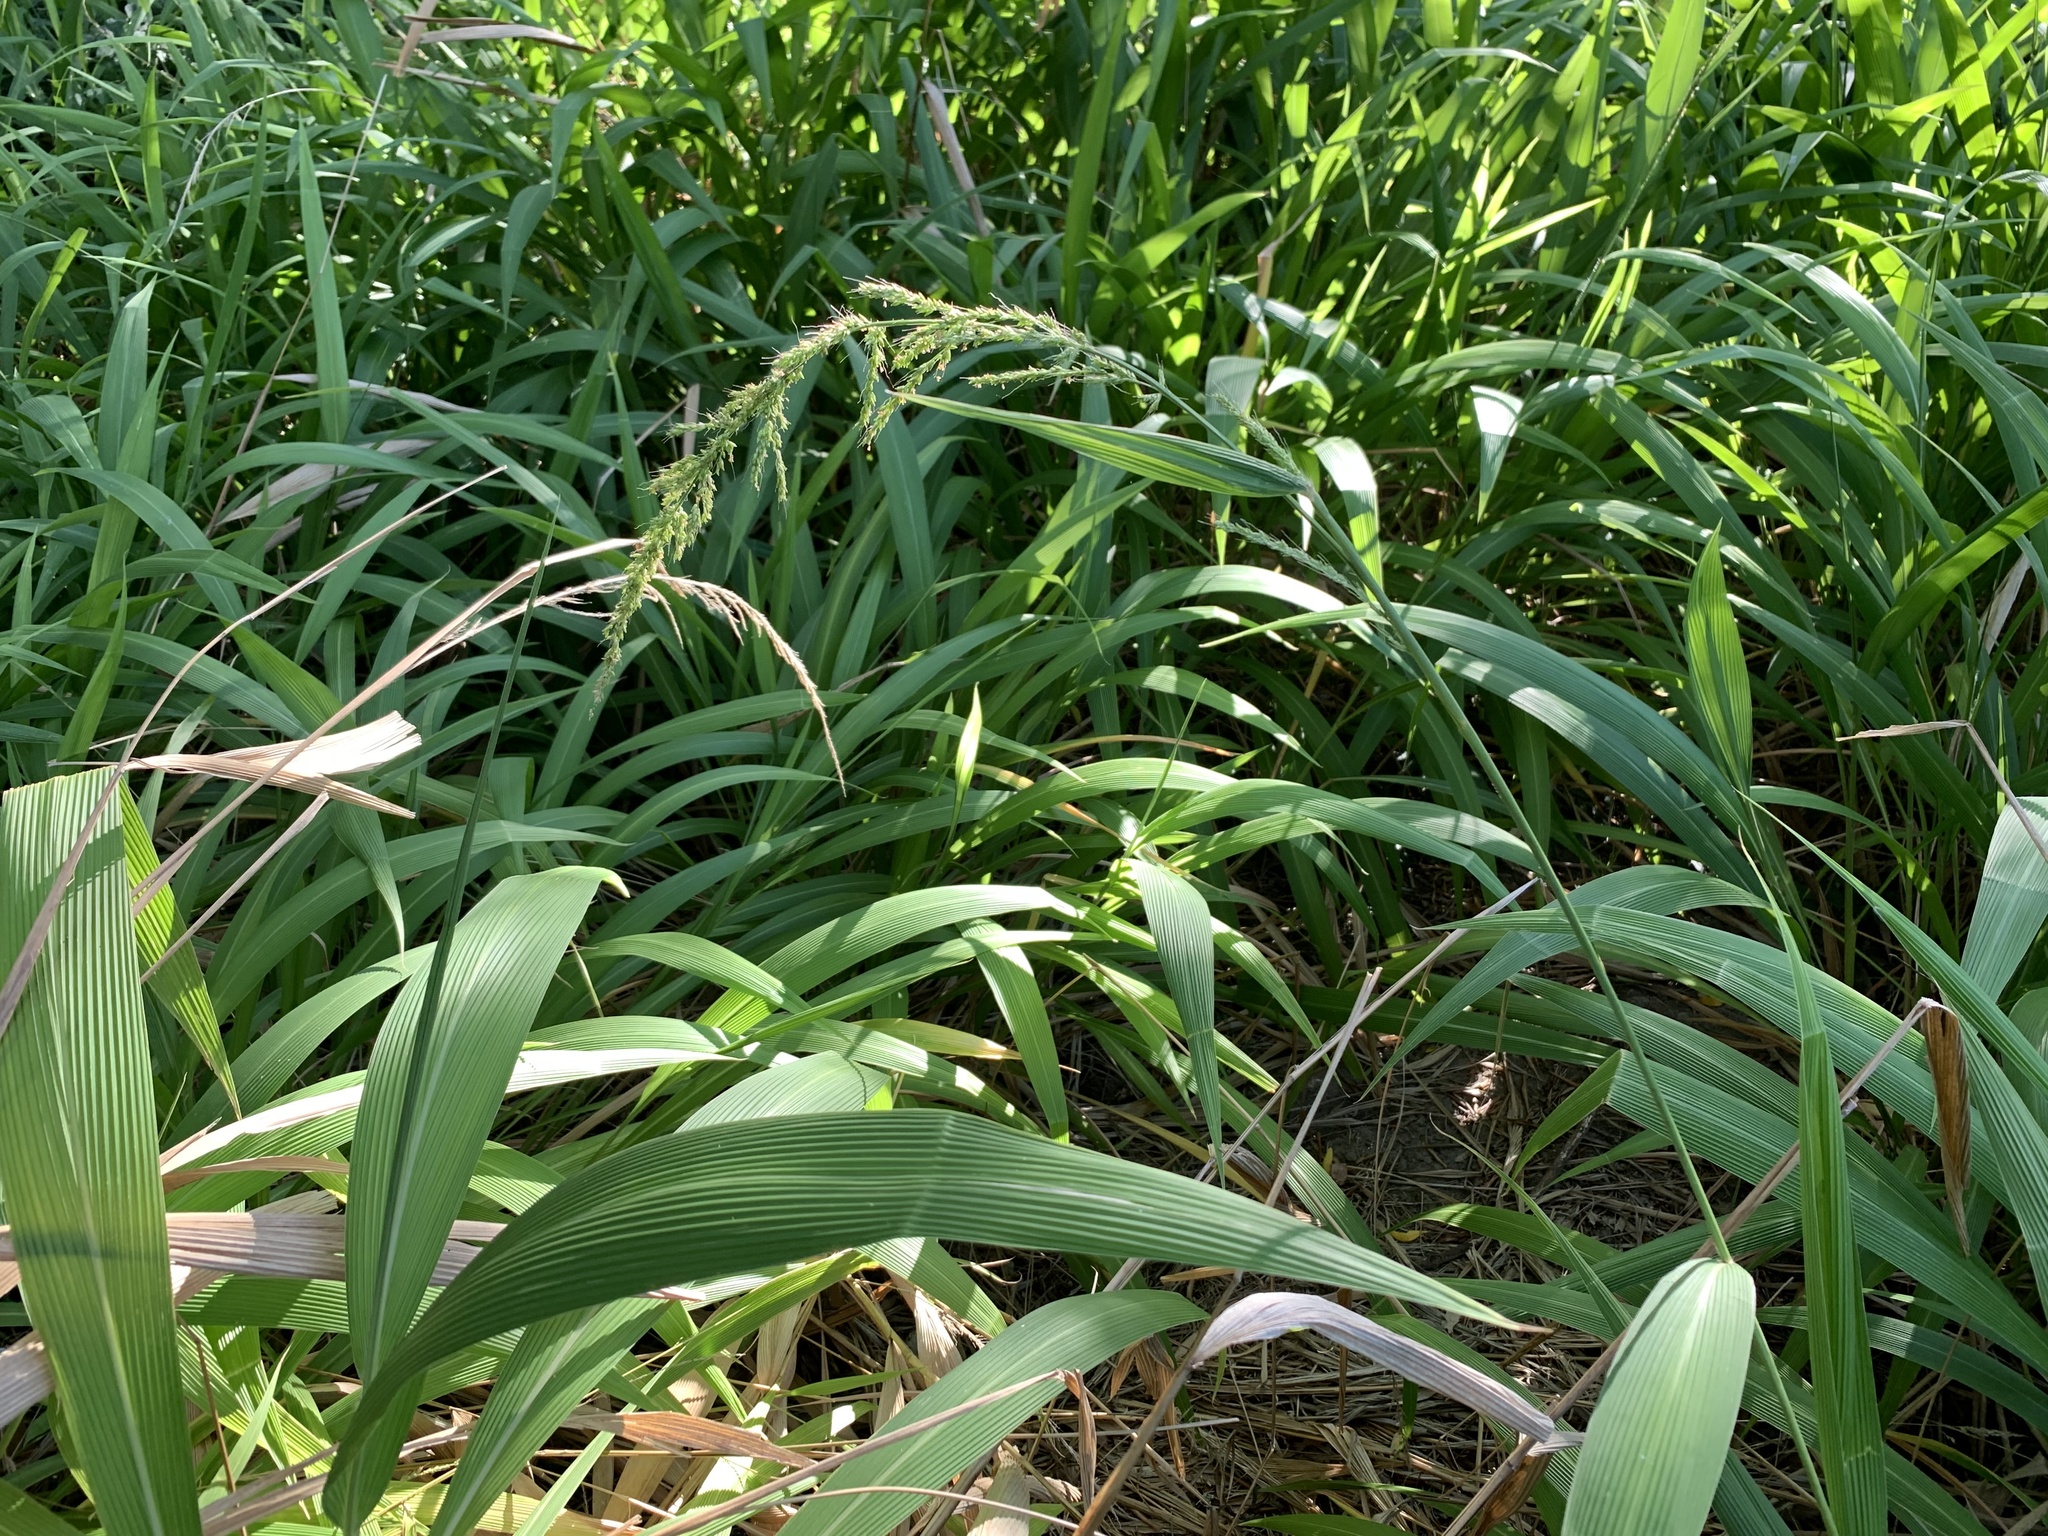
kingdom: Plantae
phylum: Tracheophyta
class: Liliopsida
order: Poales
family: Poaceae
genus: Setaria
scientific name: Setaria megaphylla
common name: Bigleaf bristlegrass
